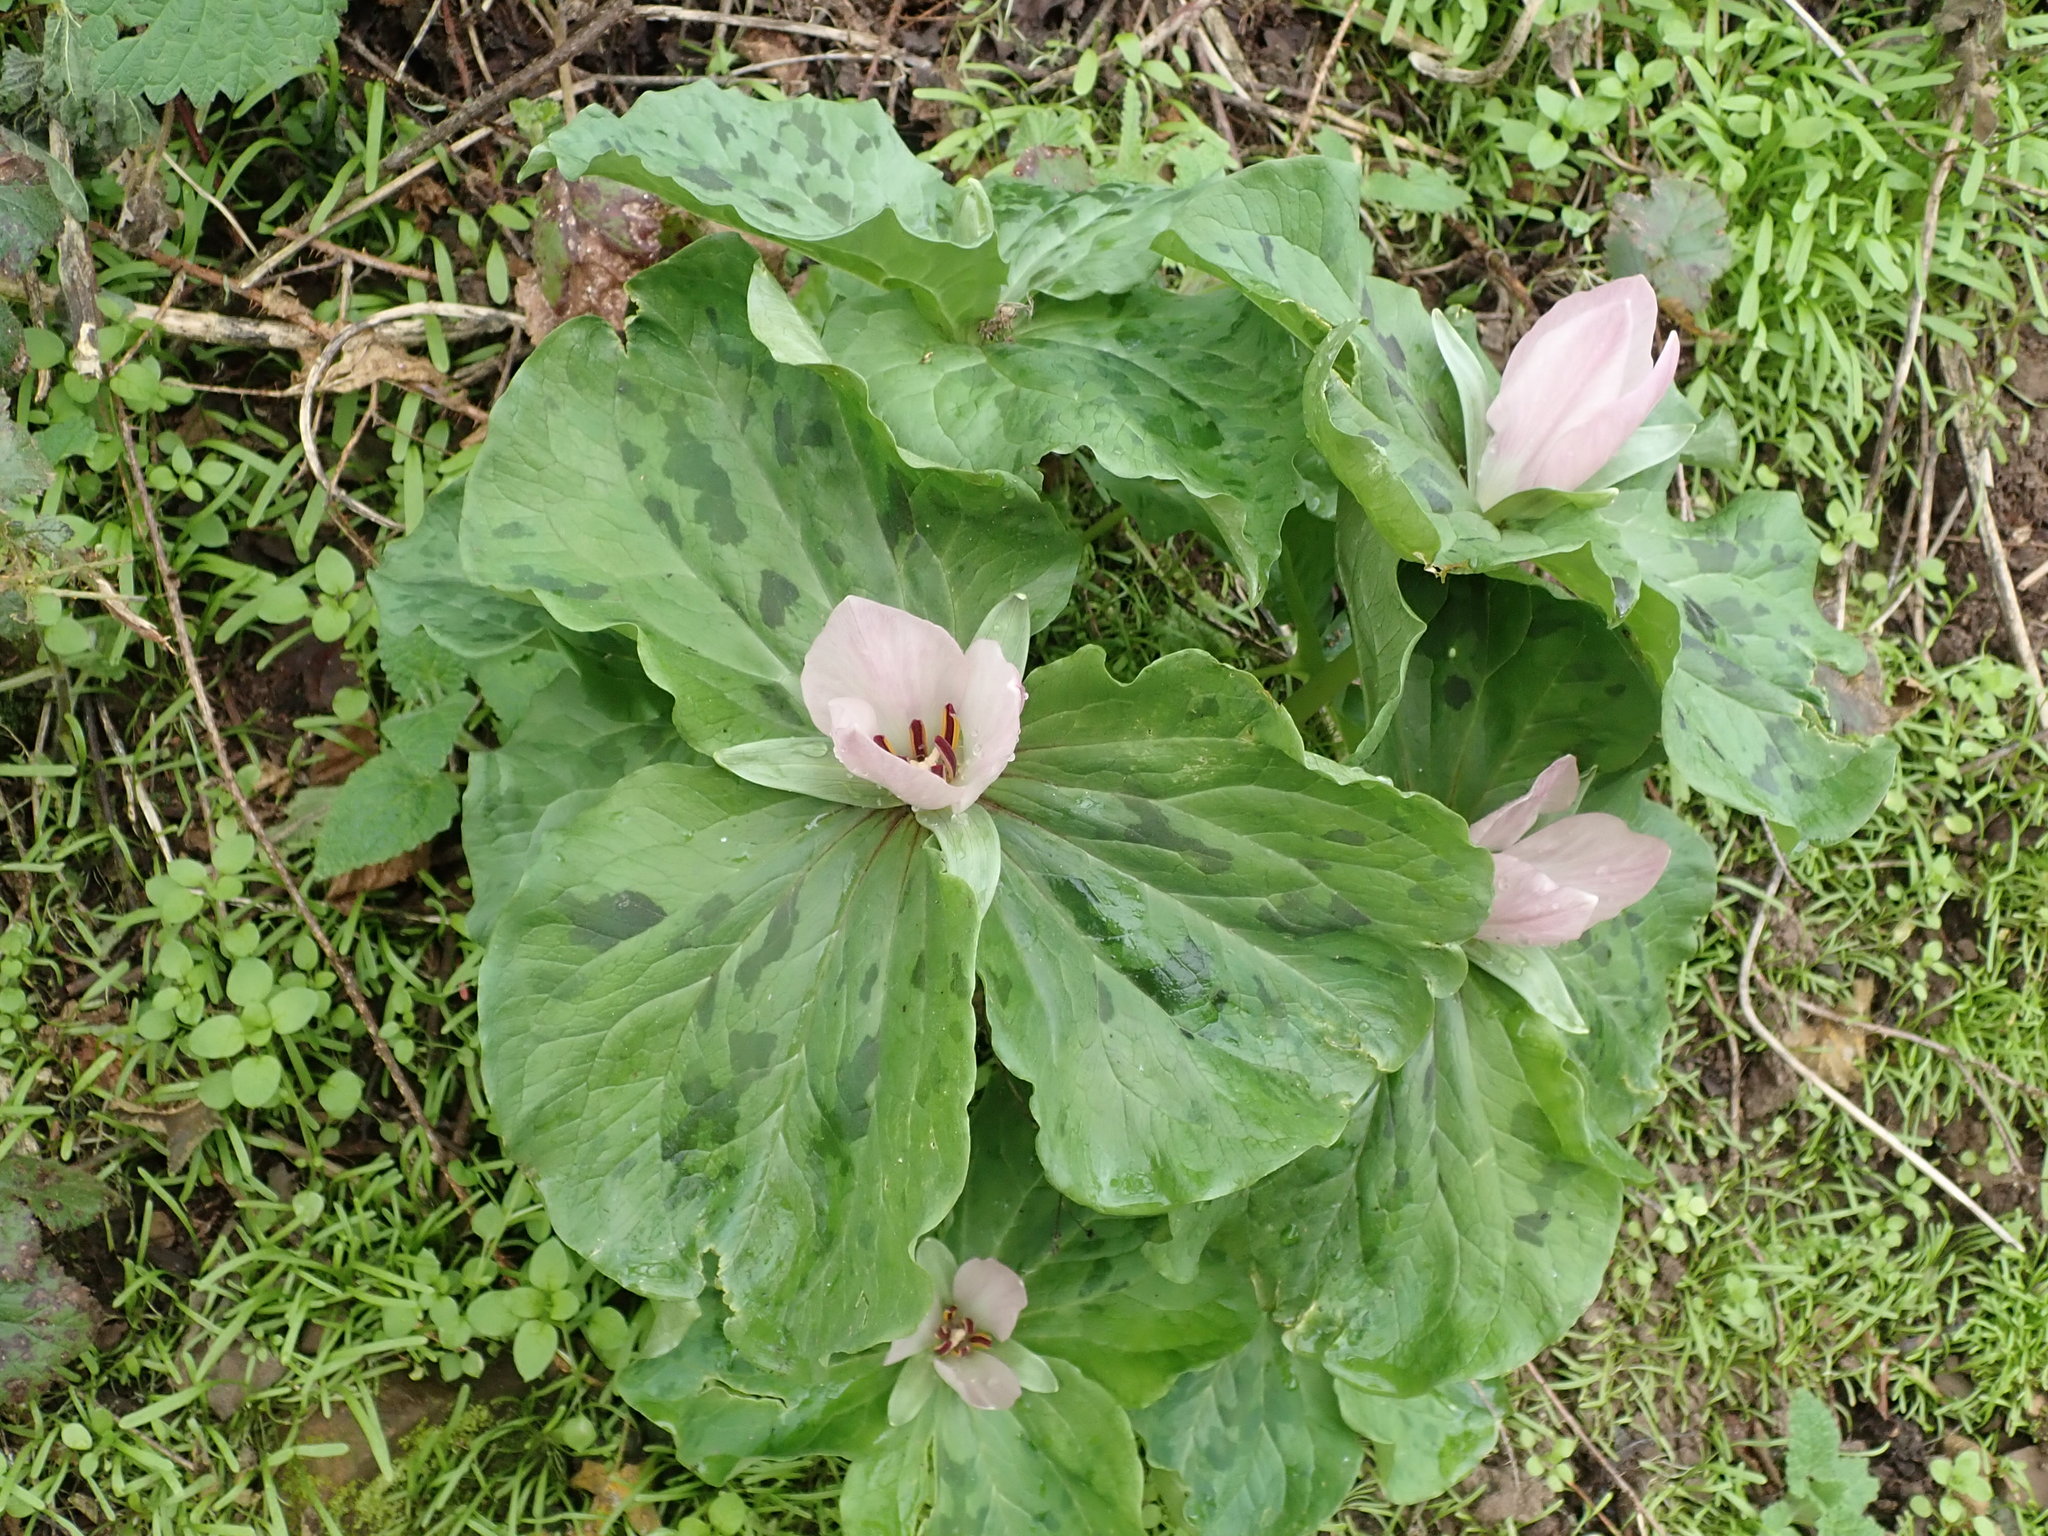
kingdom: Plantae
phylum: Tracheophyta
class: Liliopsida
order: Liliales
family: Melanthiaceae
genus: Trillium
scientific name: Trillium chloropetalum
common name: Giant trillium
